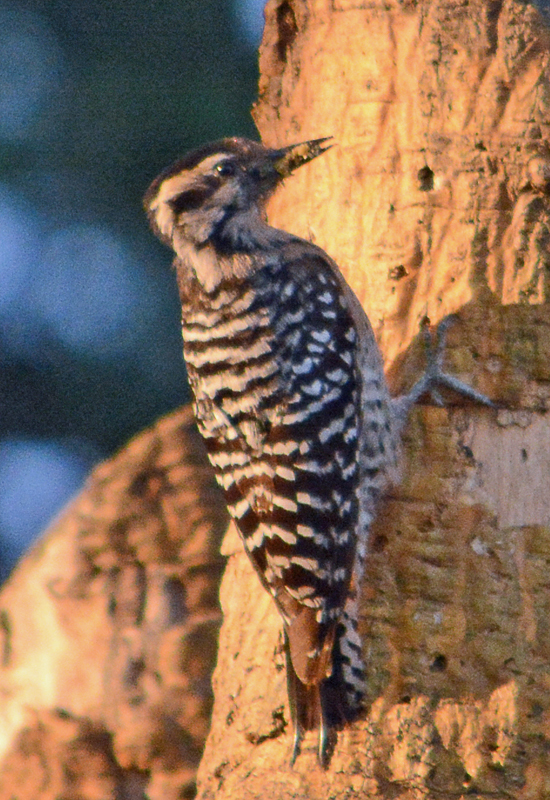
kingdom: Animalia
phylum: Chordata
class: Aves
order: Piciformes
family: Picidae
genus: Dryobates
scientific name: Dryobates scalaris
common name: Ladder-backed woodpecker
